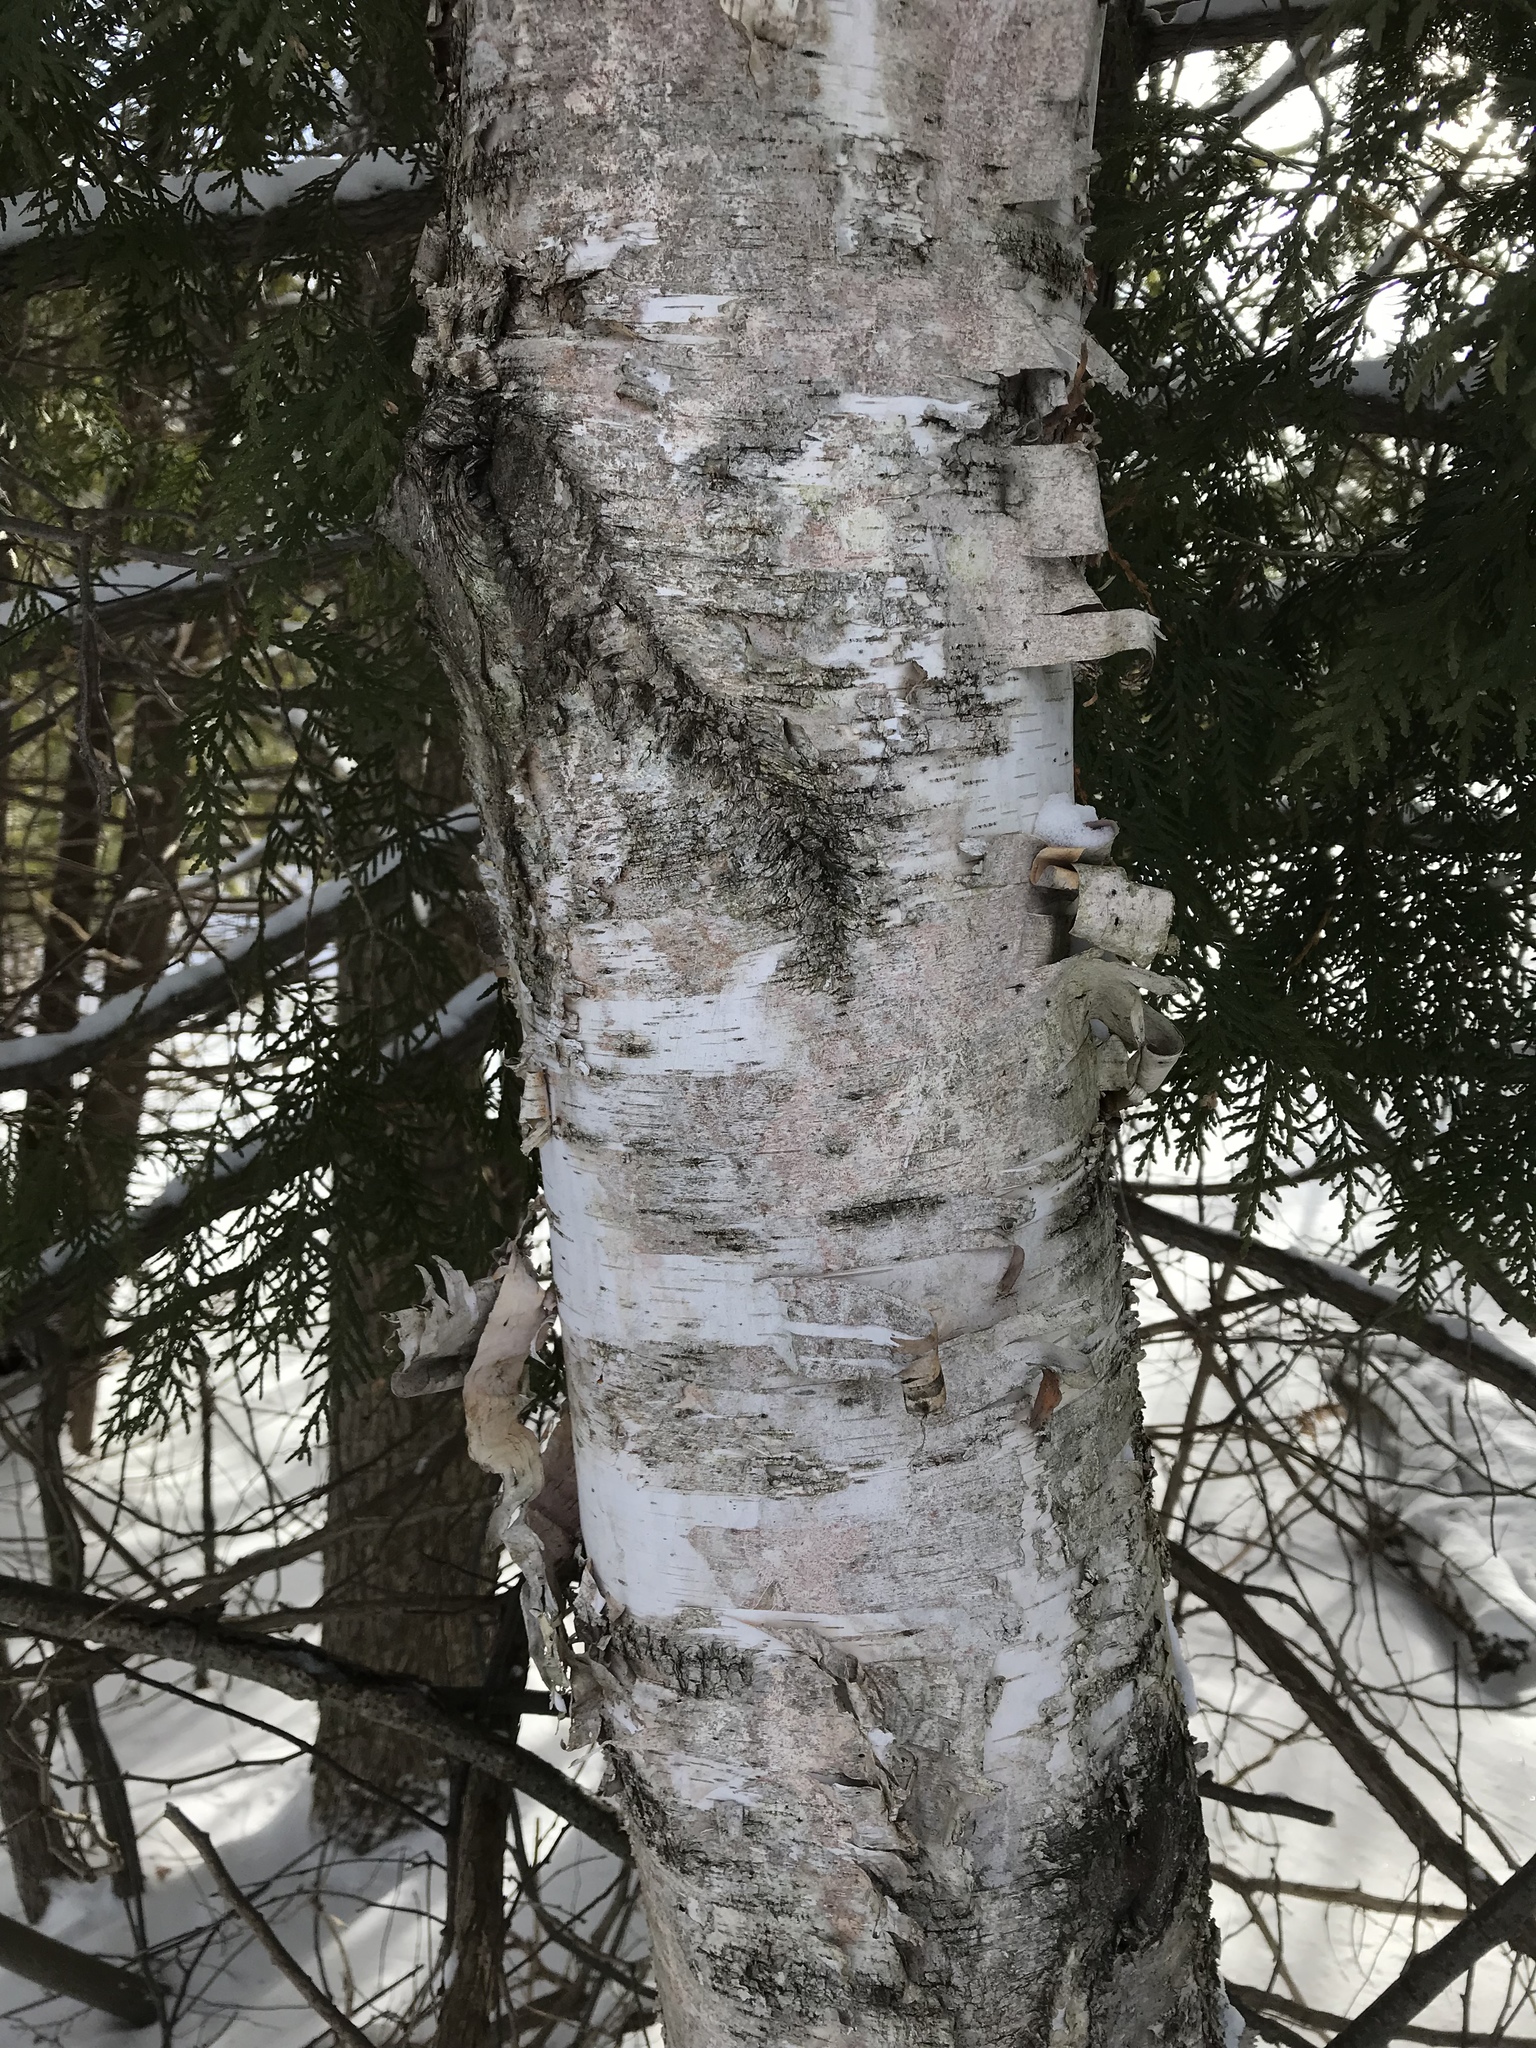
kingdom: Plantae
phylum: Tracheophyta
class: Magnoliopsida
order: Fagales
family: Betulaceae
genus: Betula
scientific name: Betula papyrifera
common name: Paper birch
